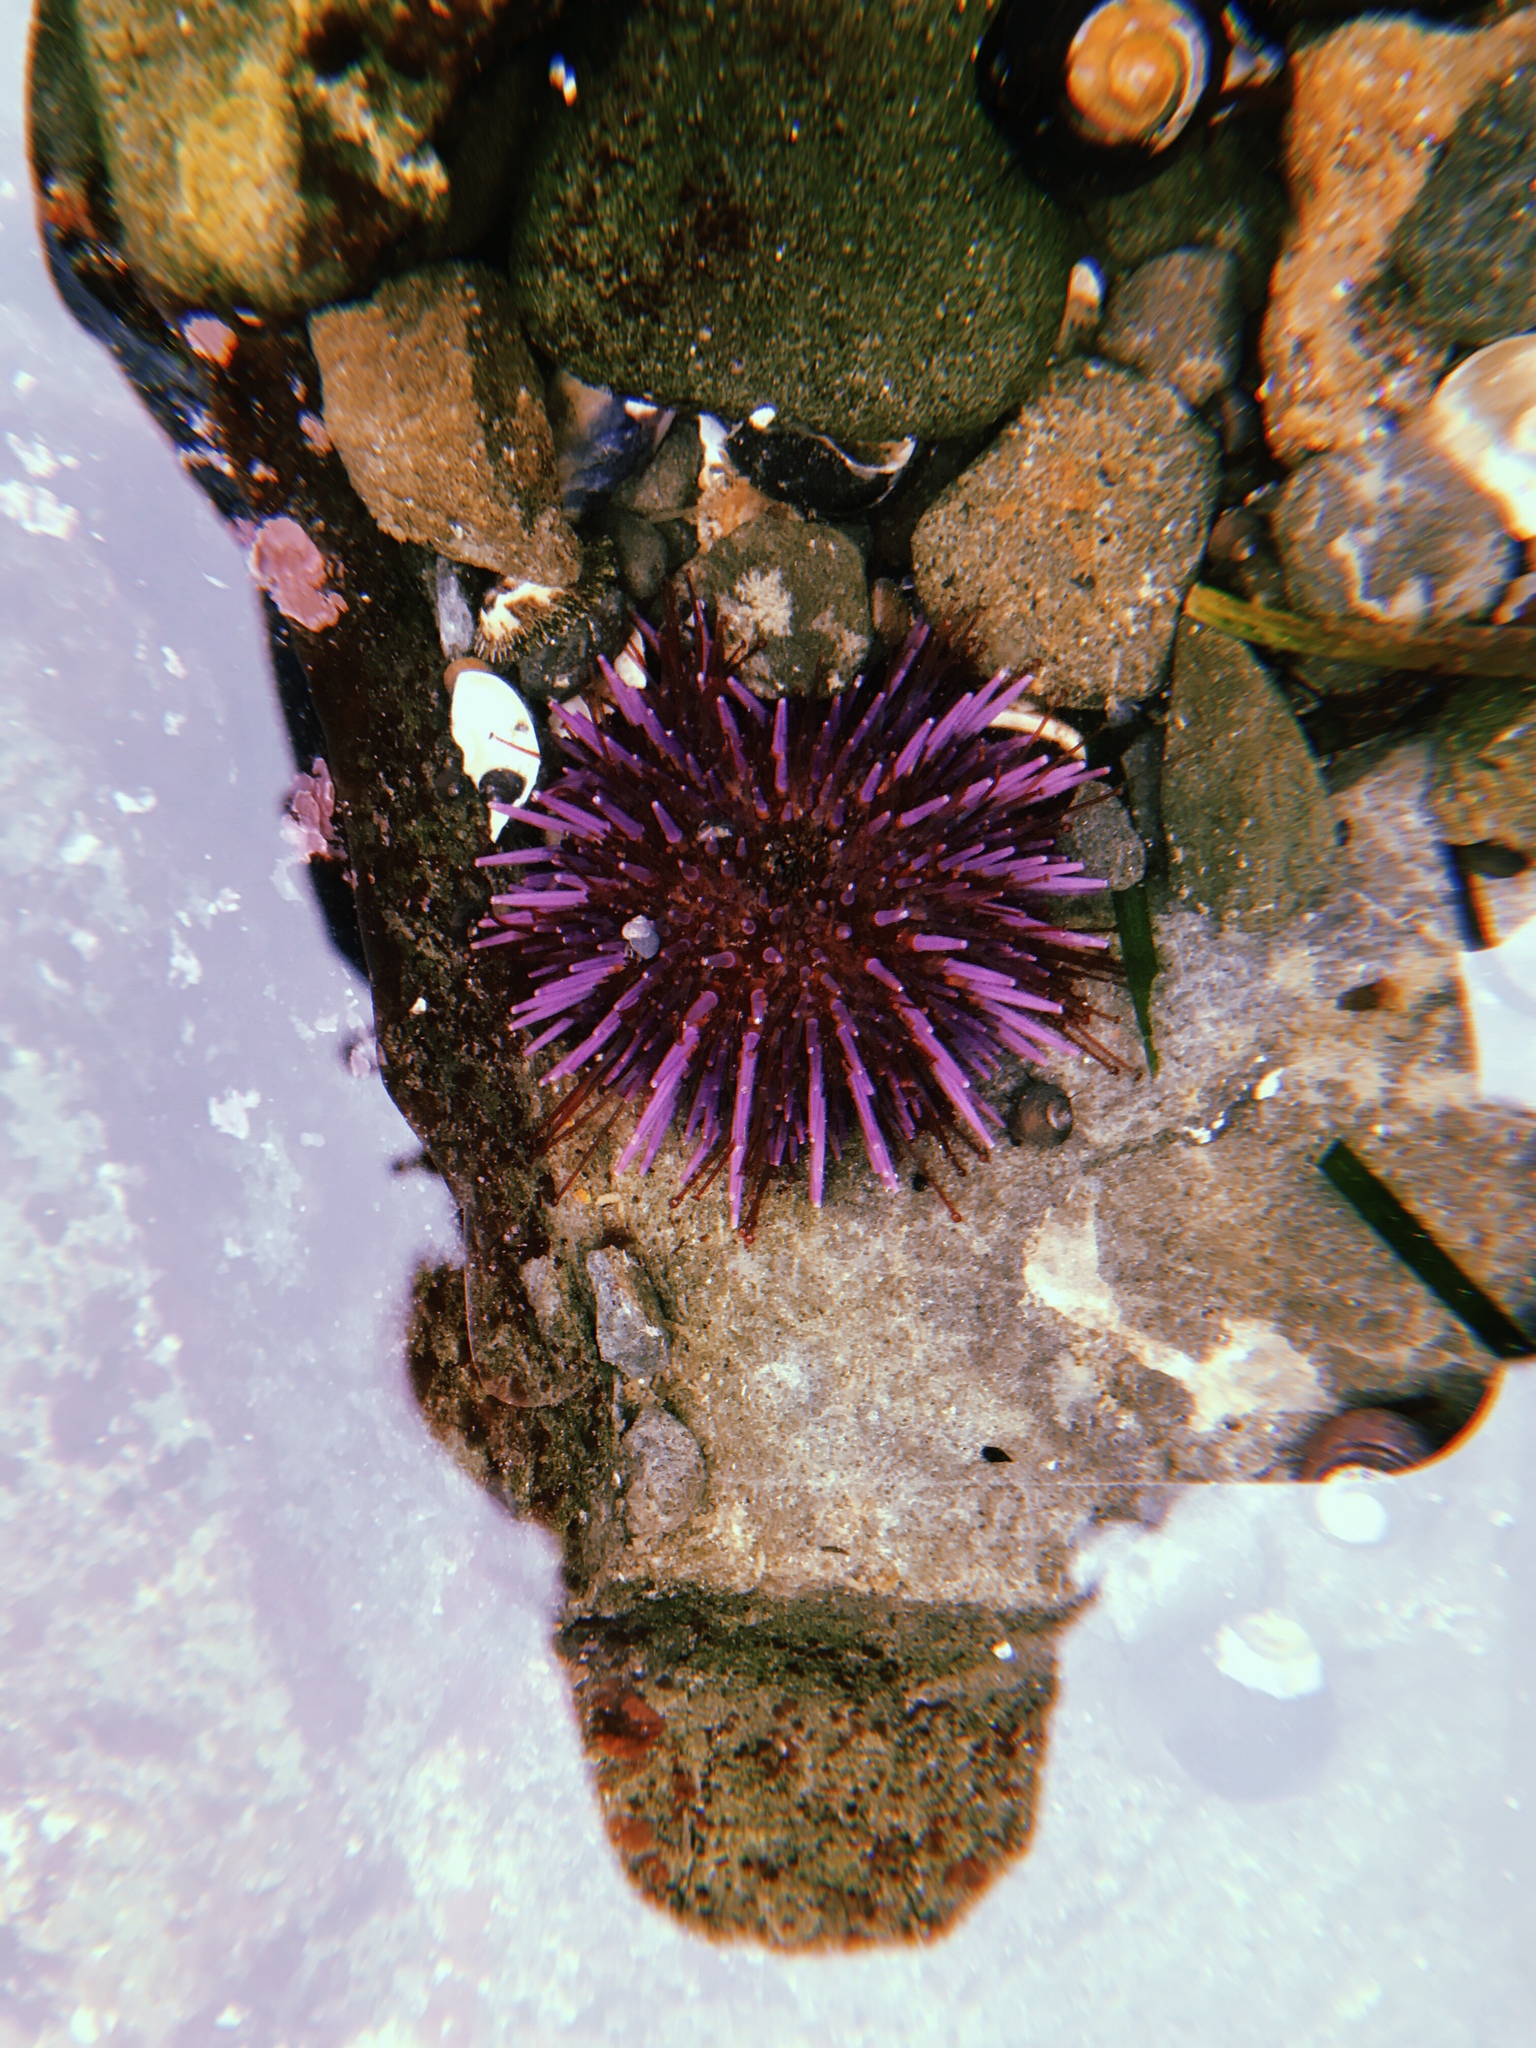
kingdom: Animalia
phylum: Echinodermata
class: Echinoidea
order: Camarodonta
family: Strongylocentrotidae
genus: Strongylocentrotus
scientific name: Strongylocentrotus purpuratus
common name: Purple sea urchin
